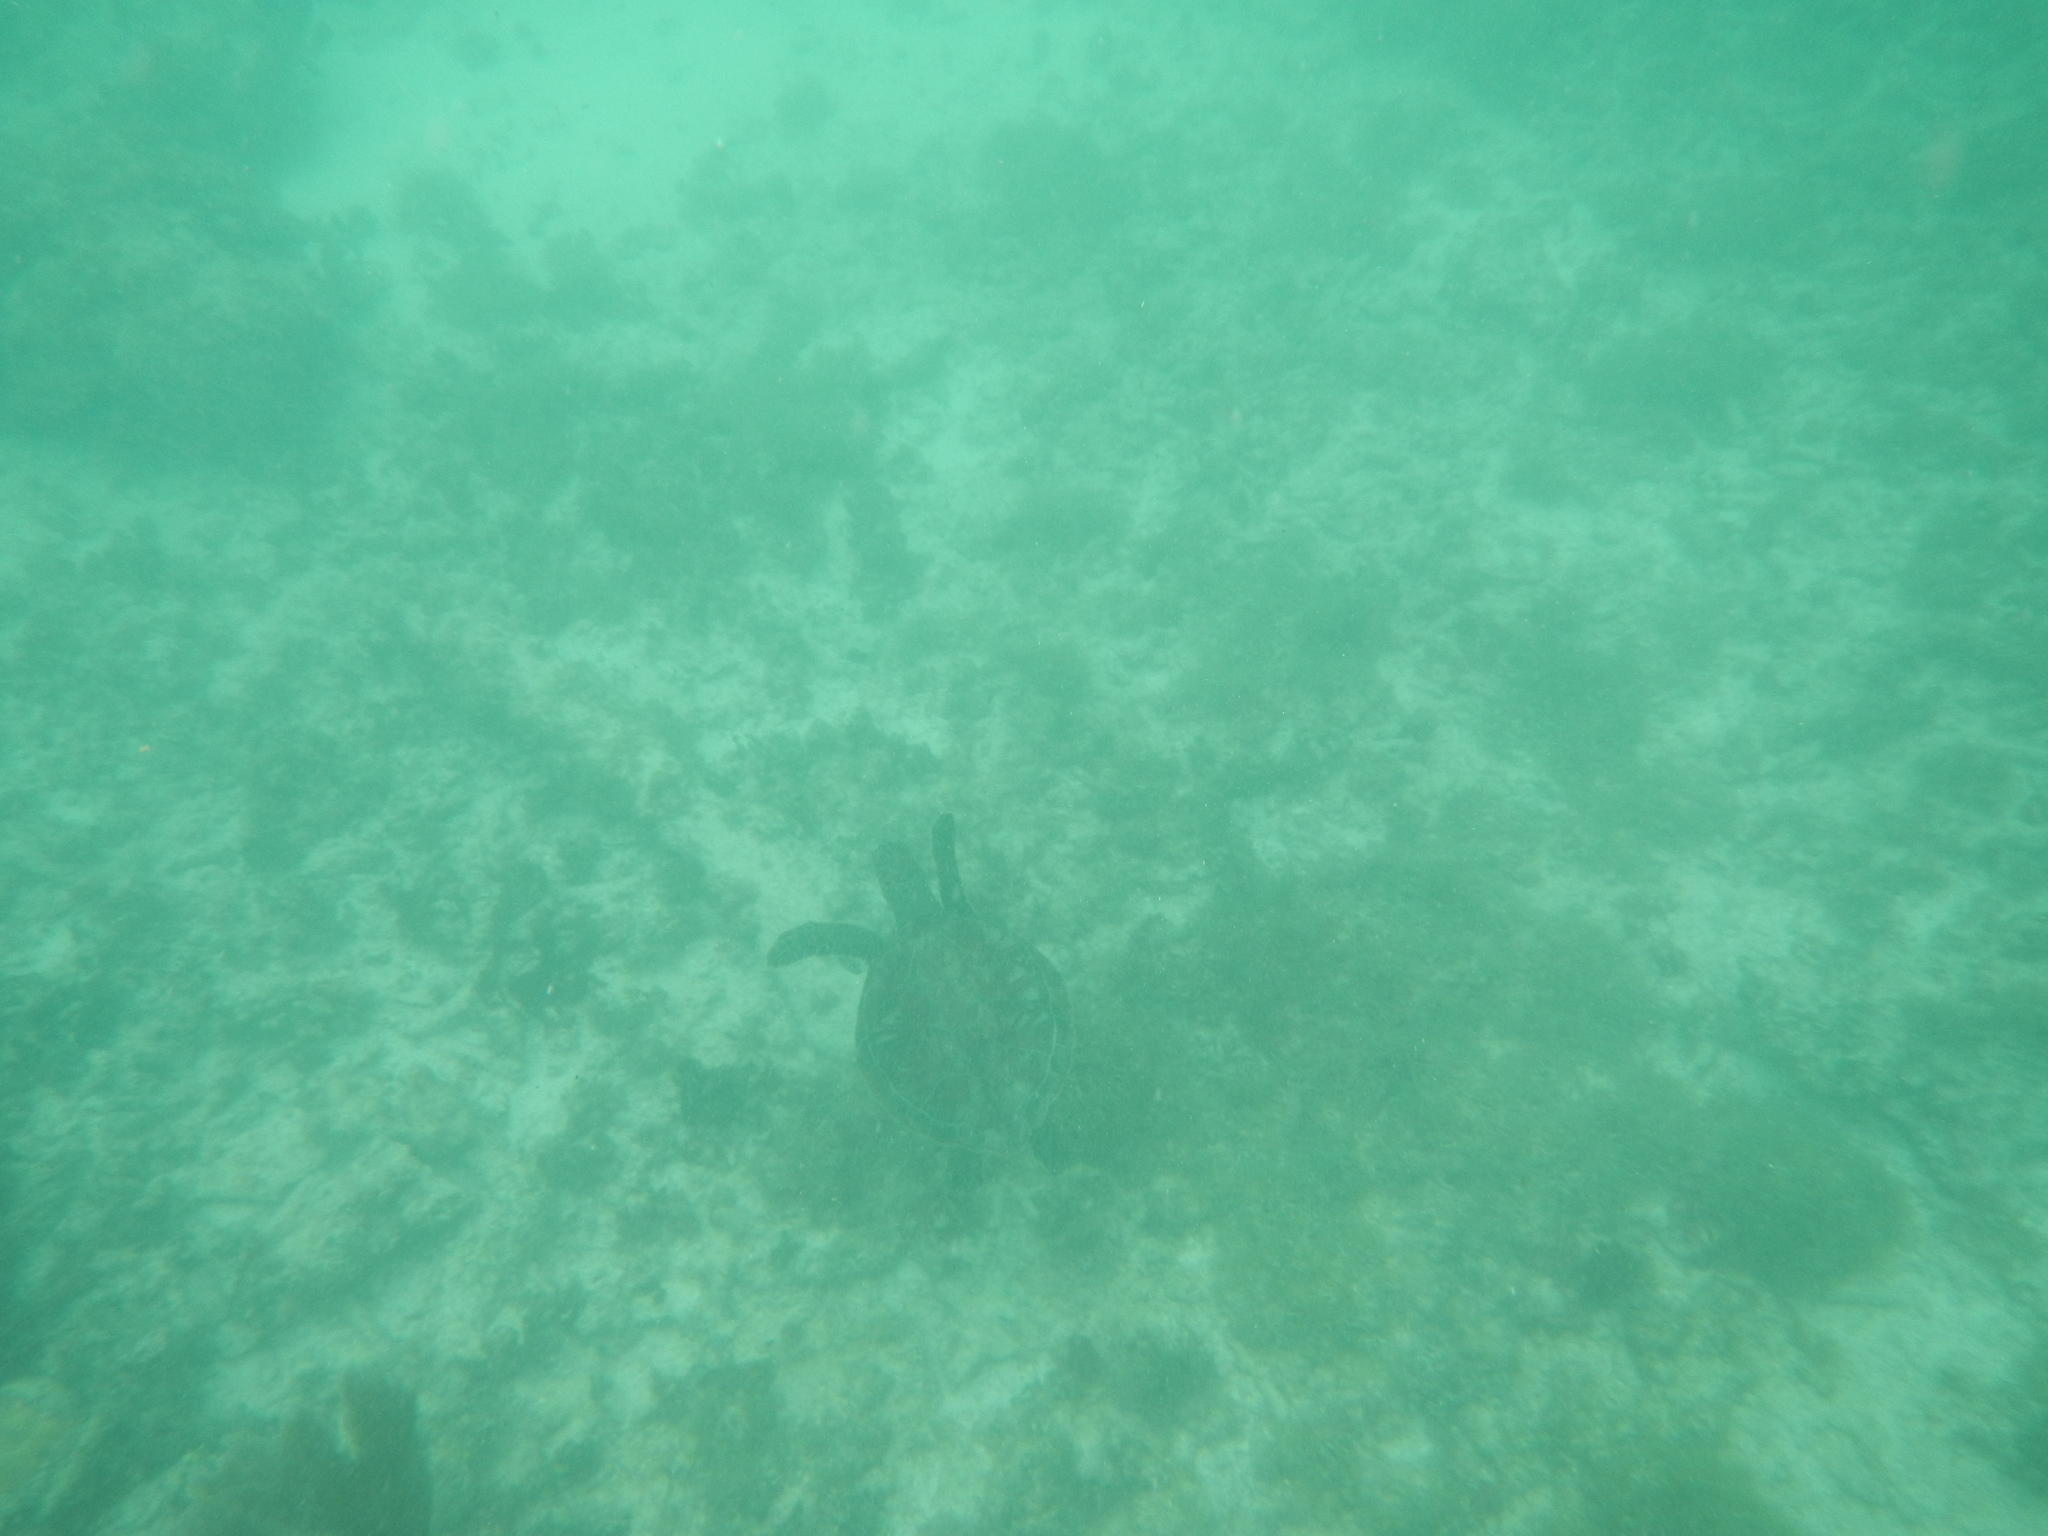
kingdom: Animalia
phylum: Chordata
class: Testudines
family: Cheloniidae
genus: Chelonia
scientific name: Chelonia mydas
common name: Green turtle
